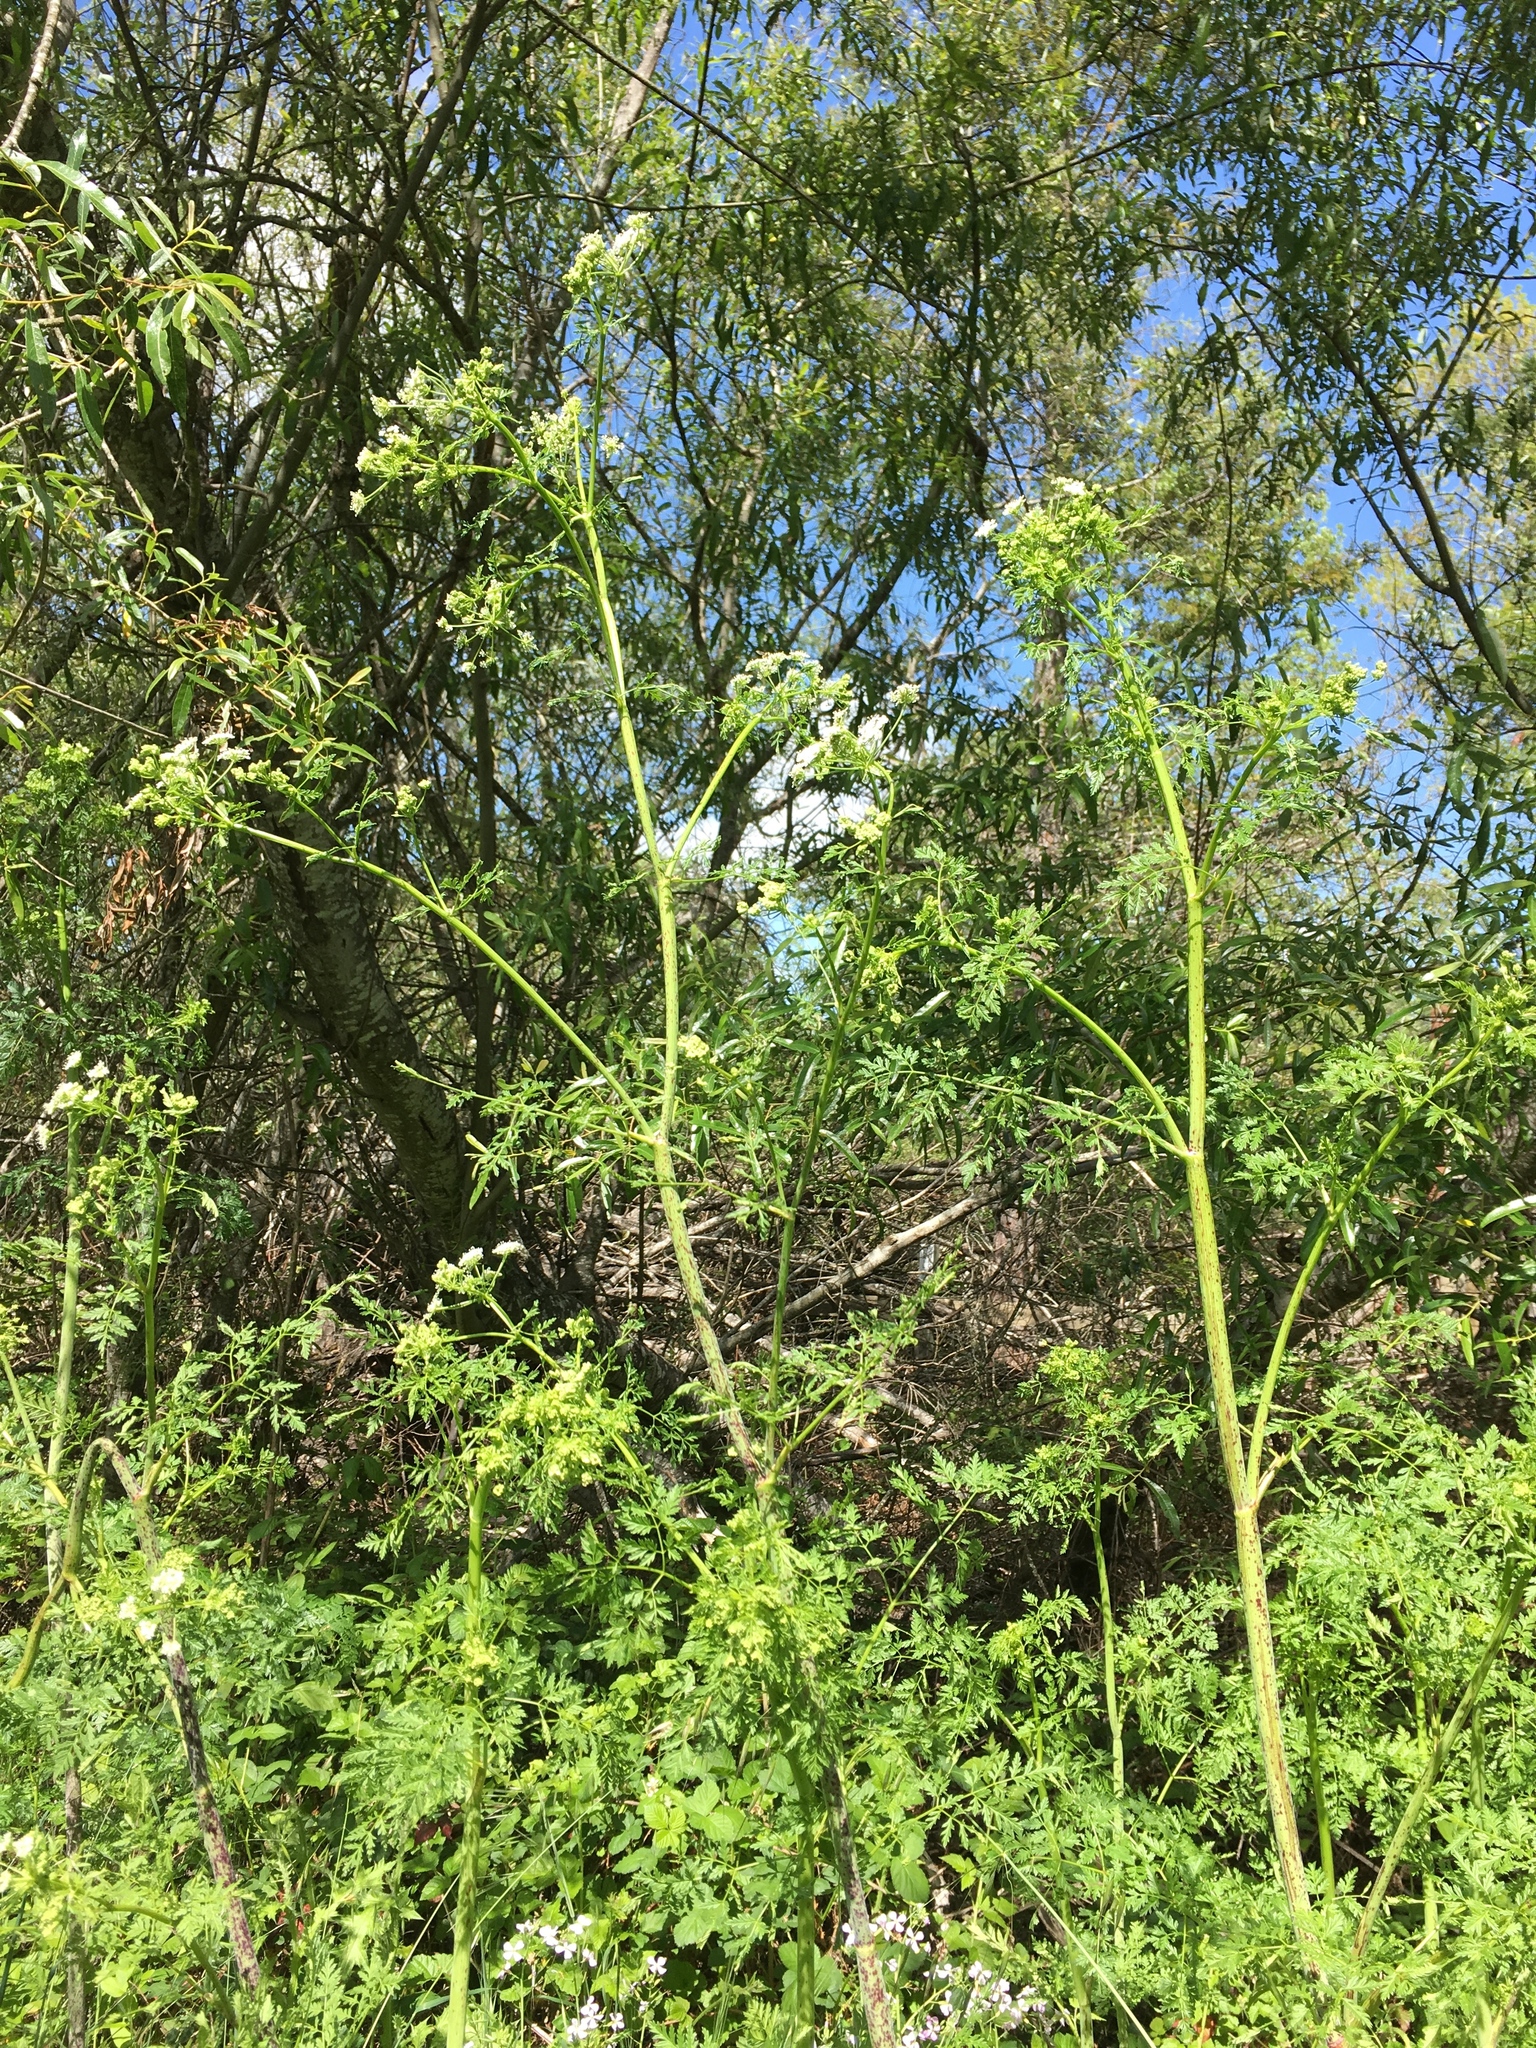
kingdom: Plantae
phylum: Tracheophyta
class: Magnoliopsida
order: Apiales
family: Apiaceae
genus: Conium
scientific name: Conium maculatum
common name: Hemlock
